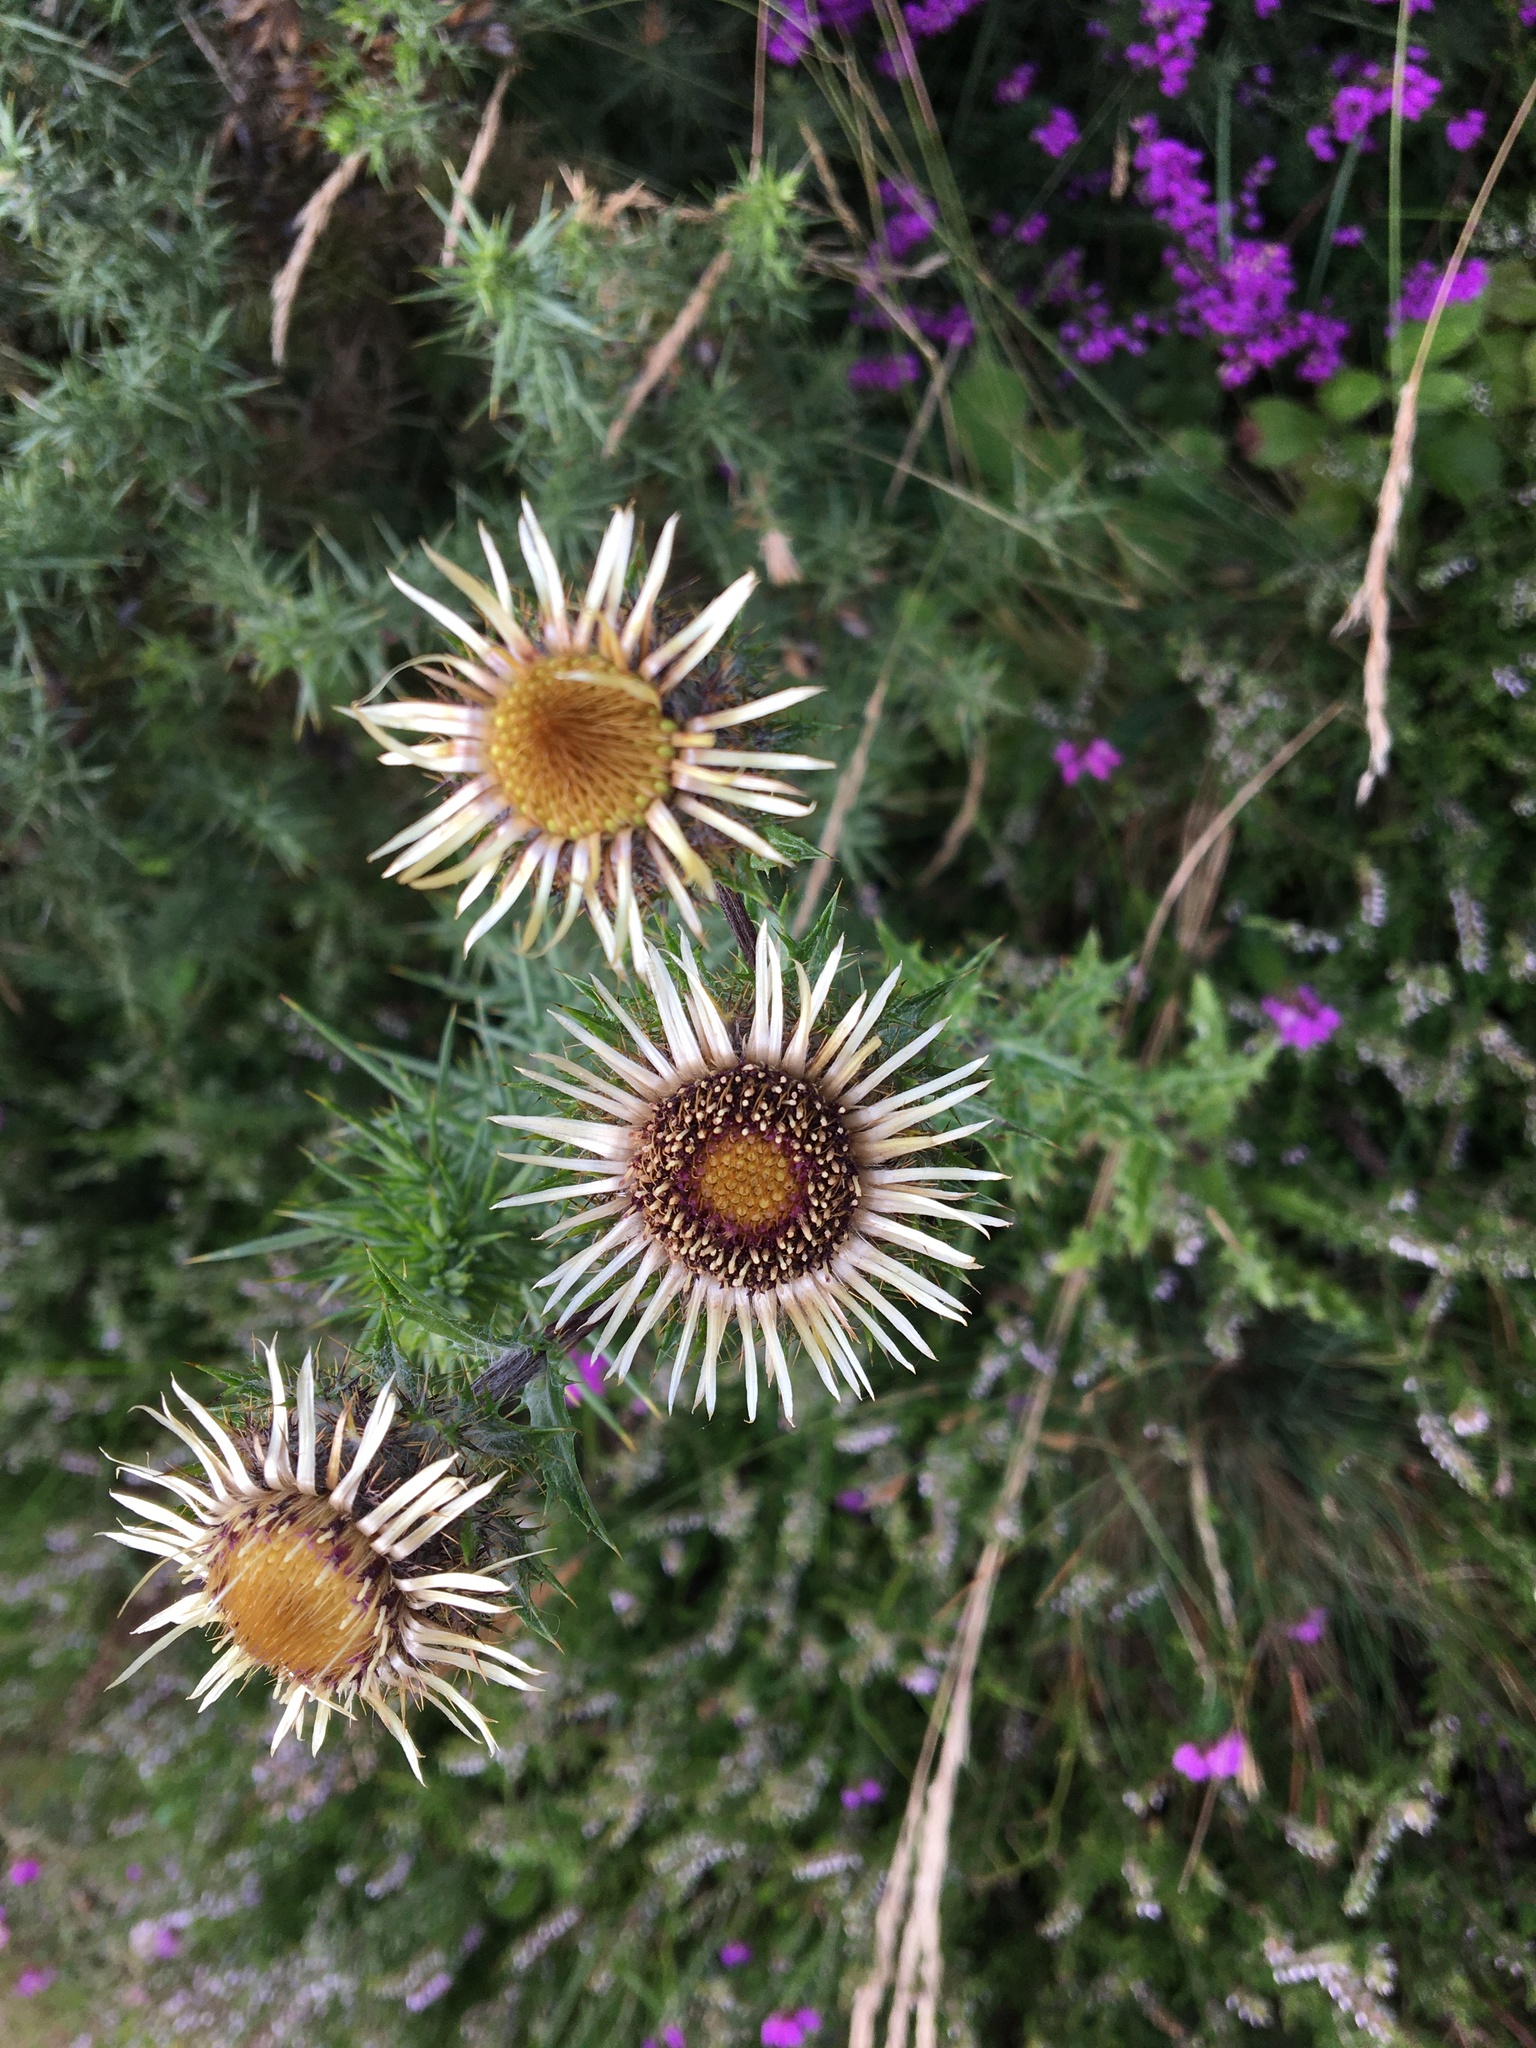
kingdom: Plantae
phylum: Tracheophyta
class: Magnoliopsida
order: Asterales
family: Asteraceae
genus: Carlina
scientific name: Carlina vulgaris
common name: Carline thistle
